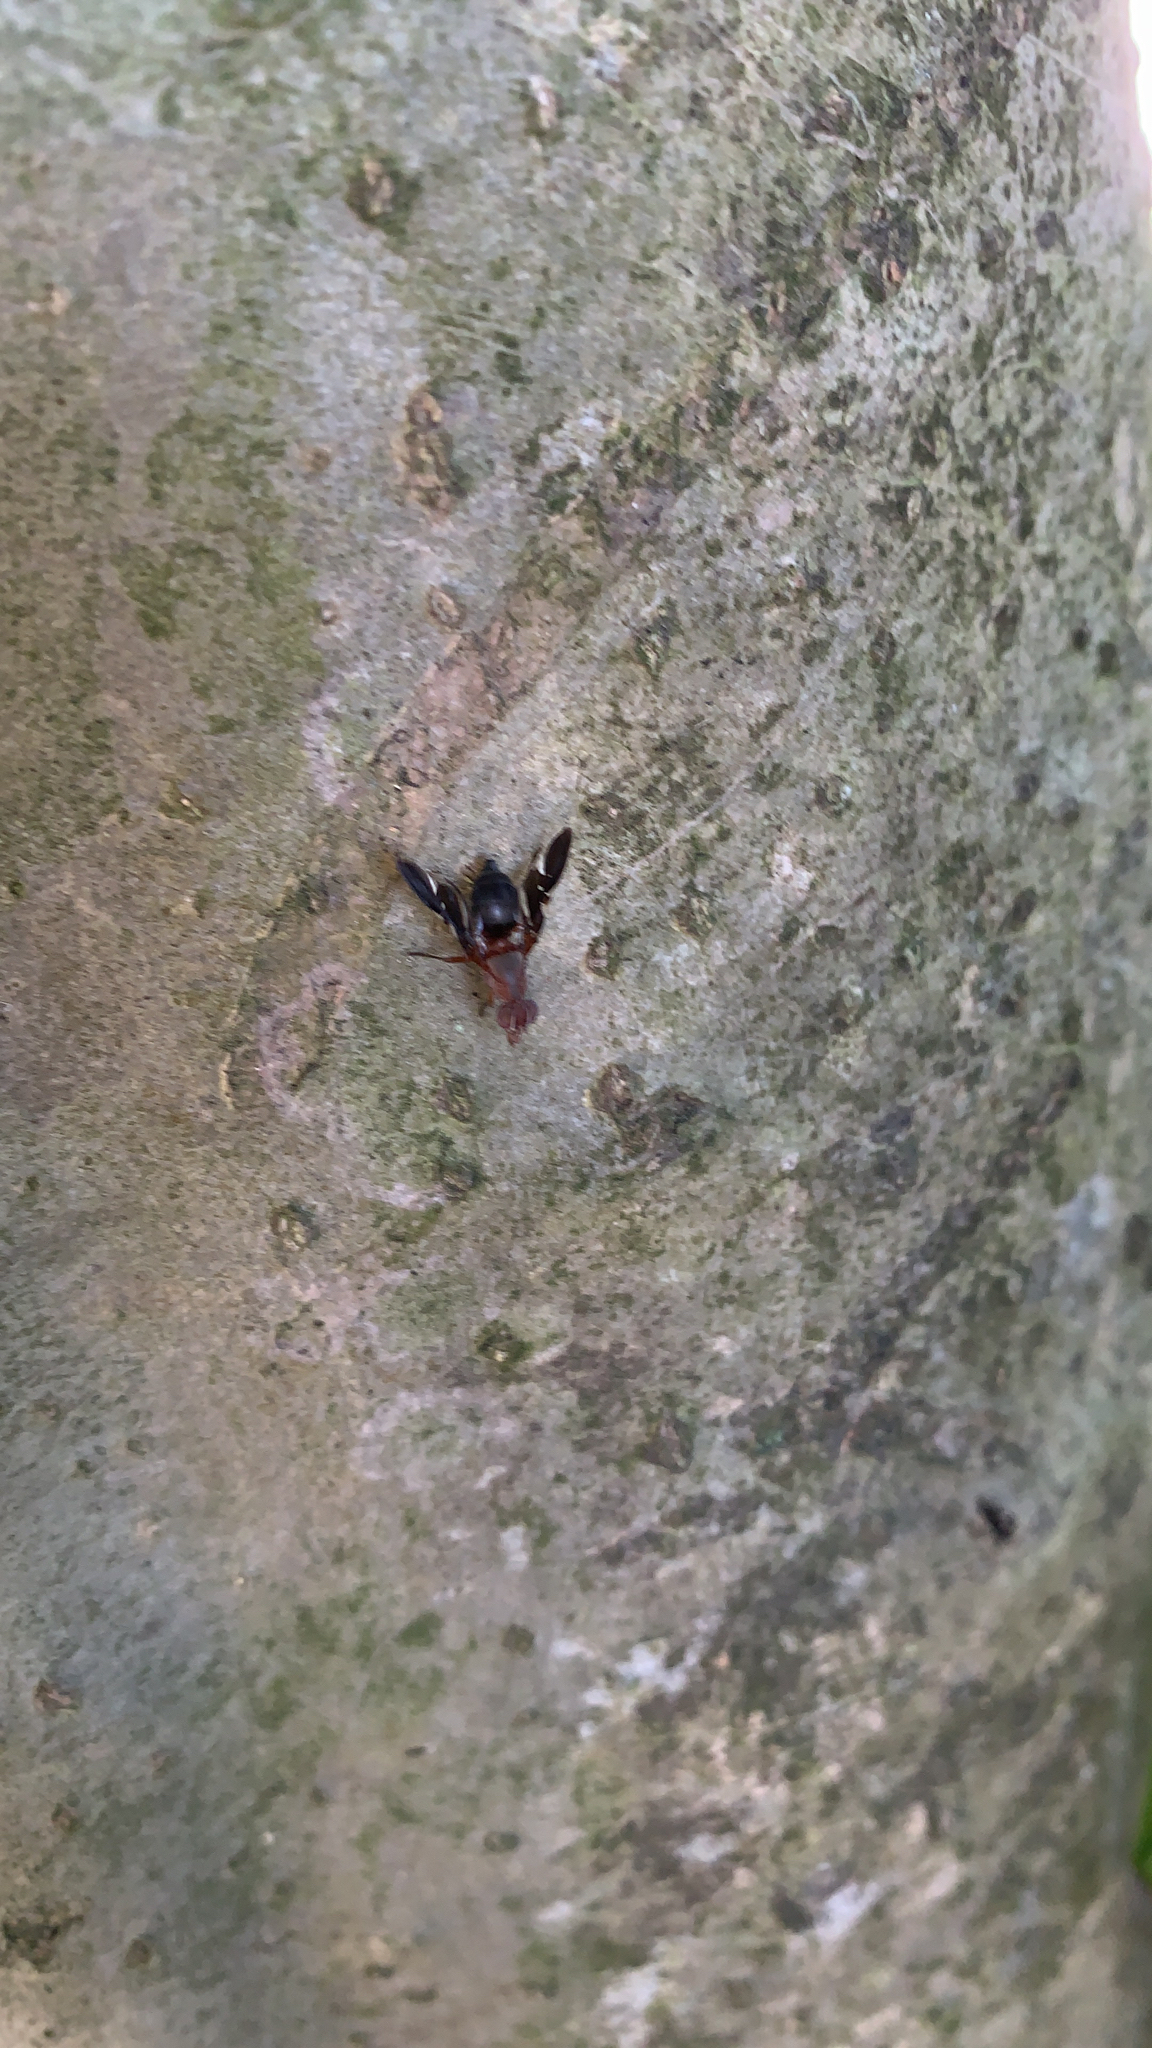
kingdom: Animalia
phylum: Arthropoda
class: Insecta
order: Diptera
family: Ulidiidae
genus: Delphinia
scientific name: Delphinia picta
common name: Common picture-winged fly
